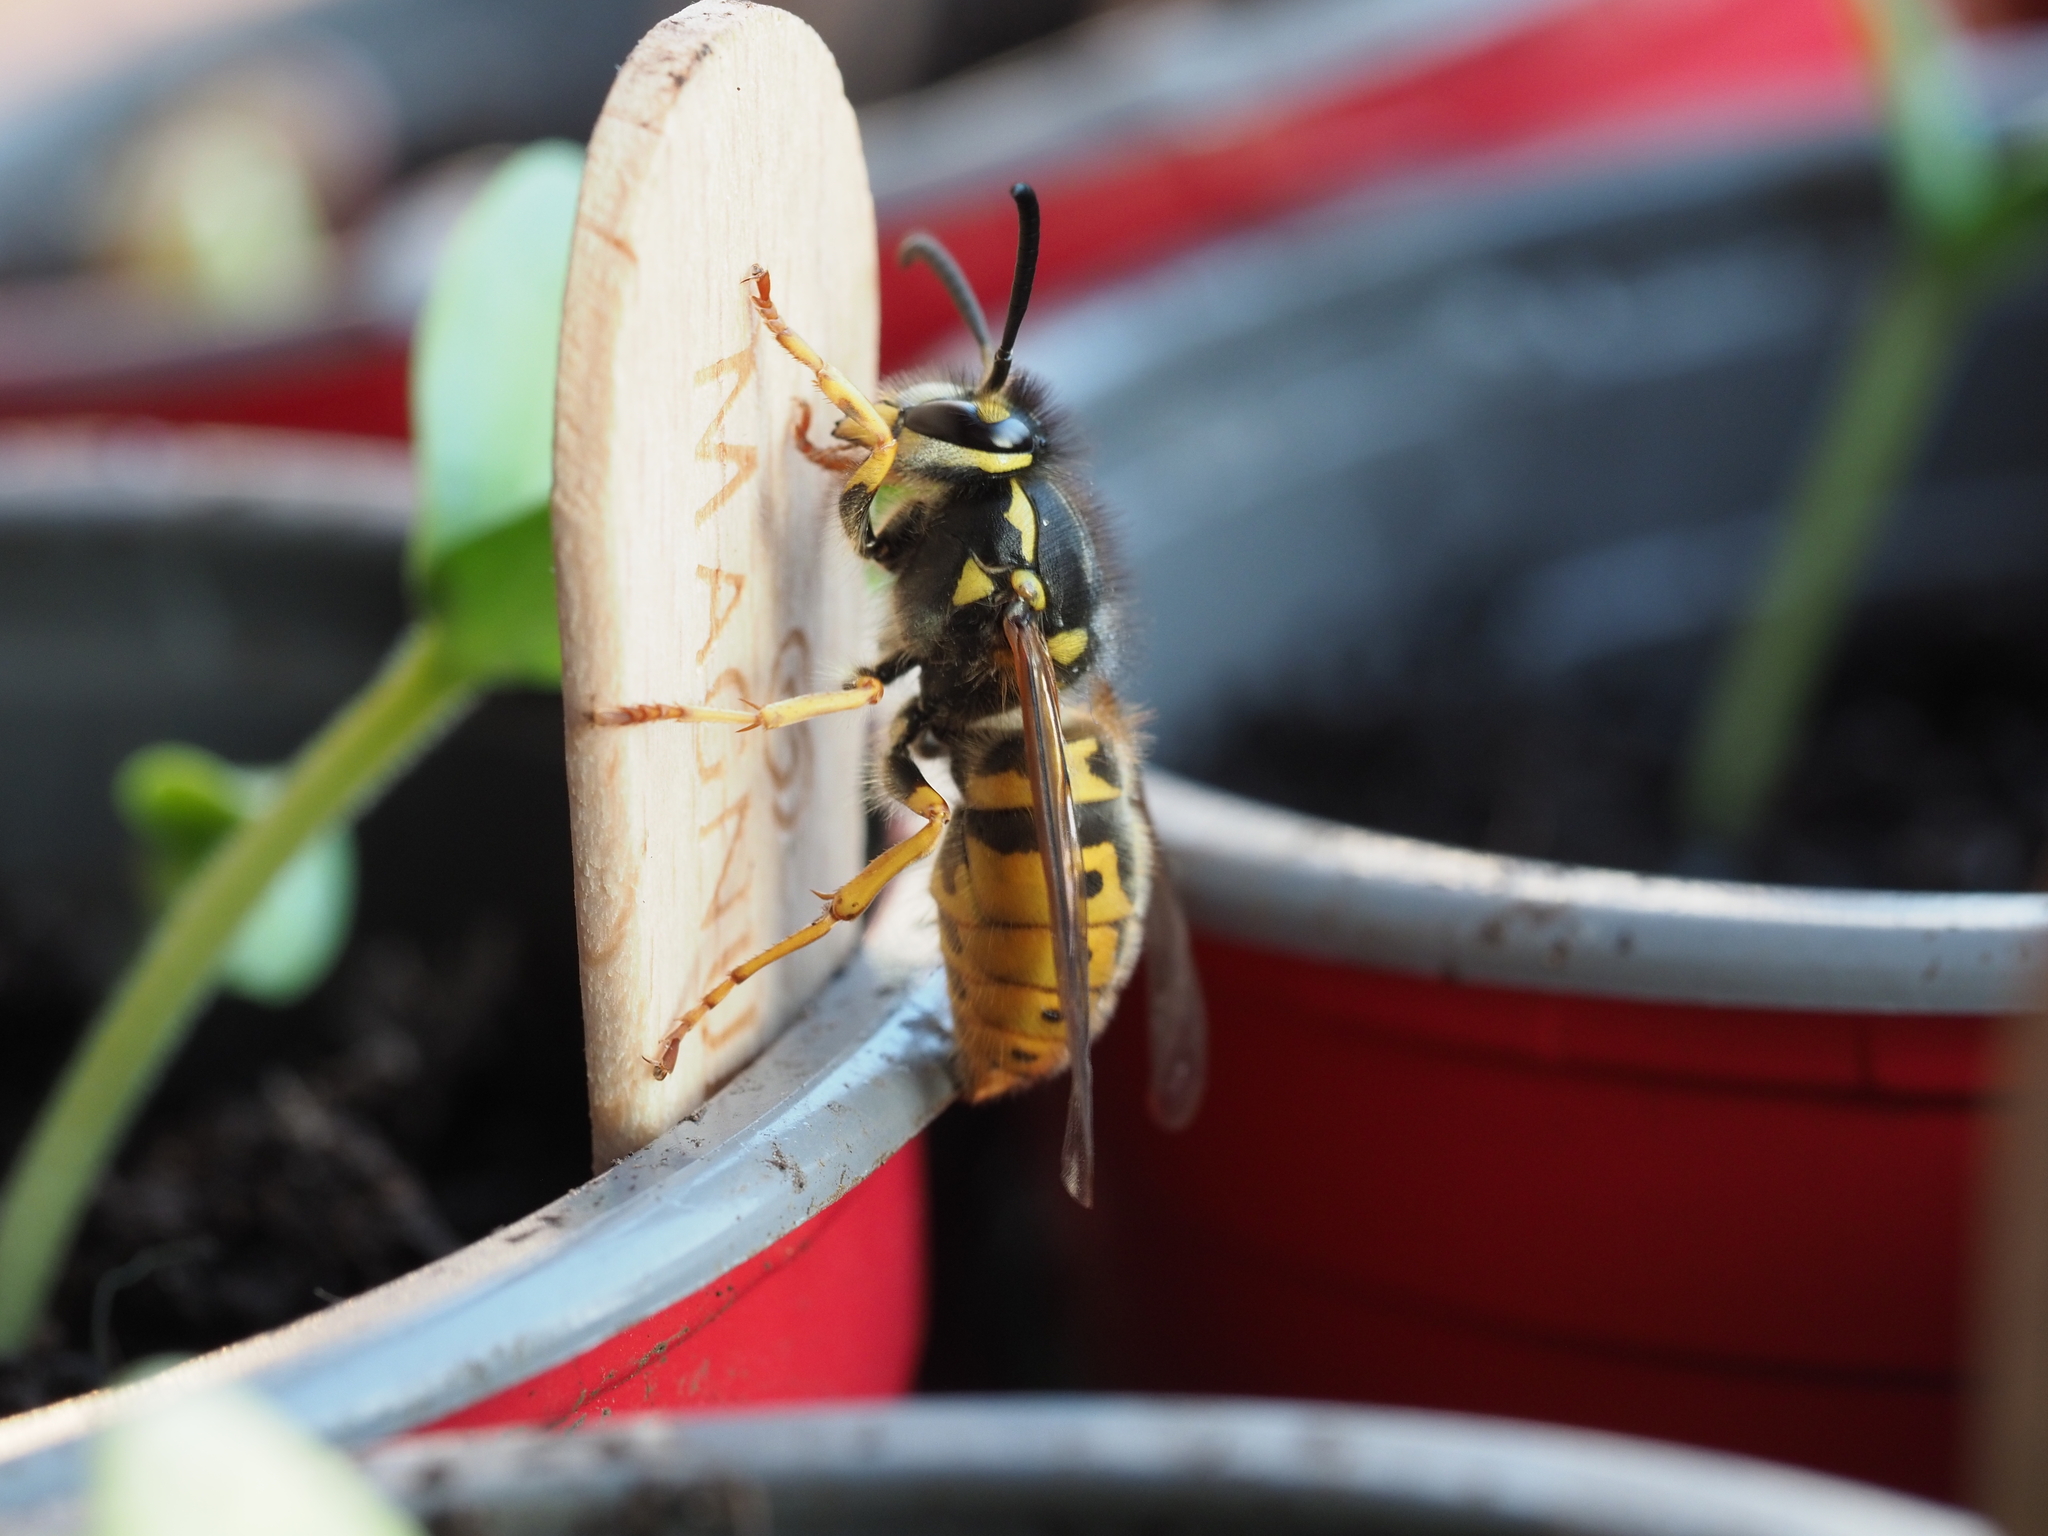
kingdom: Animalia
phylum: Arthropoda
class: Insecta
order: Hymenoptera
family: Vespidae
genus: Vespula
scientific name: Vespula germanica
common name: German wasp
